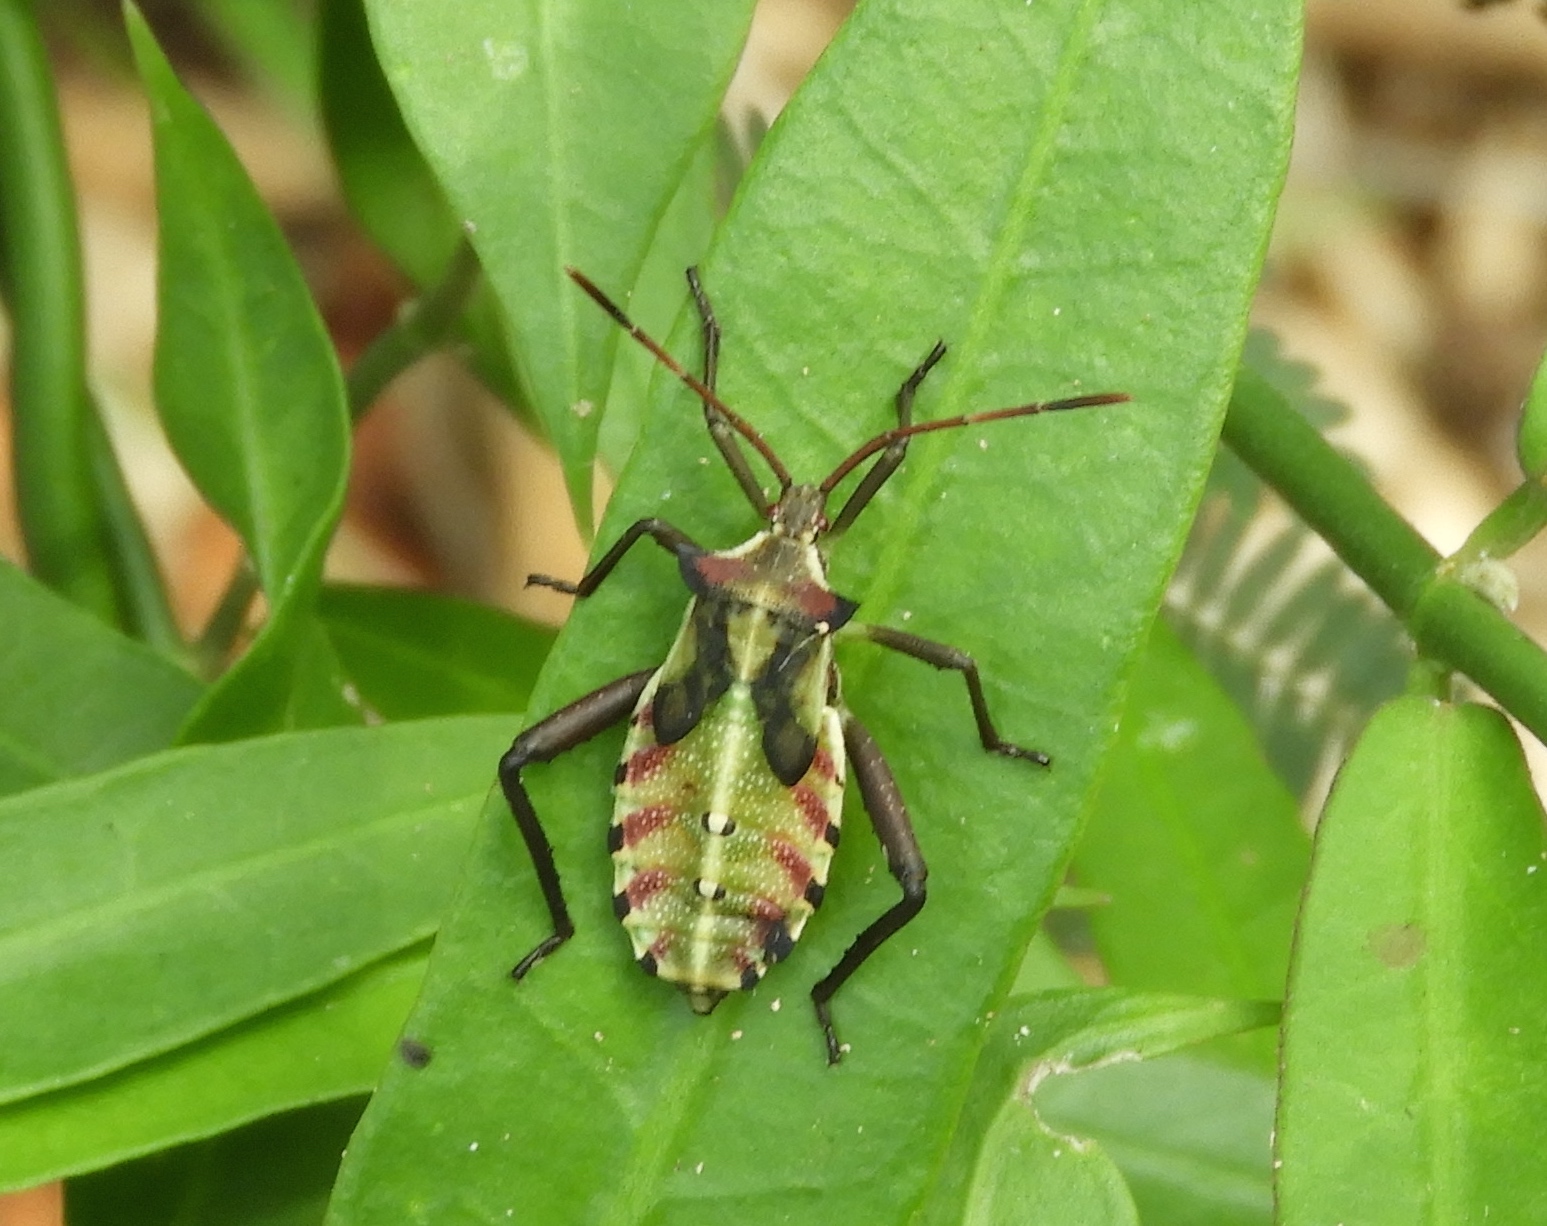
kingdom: Animalia
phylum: Arthropoda
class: Insecta
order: Hemiptera
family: Coreidae
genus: Mozena
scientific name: Mozena
